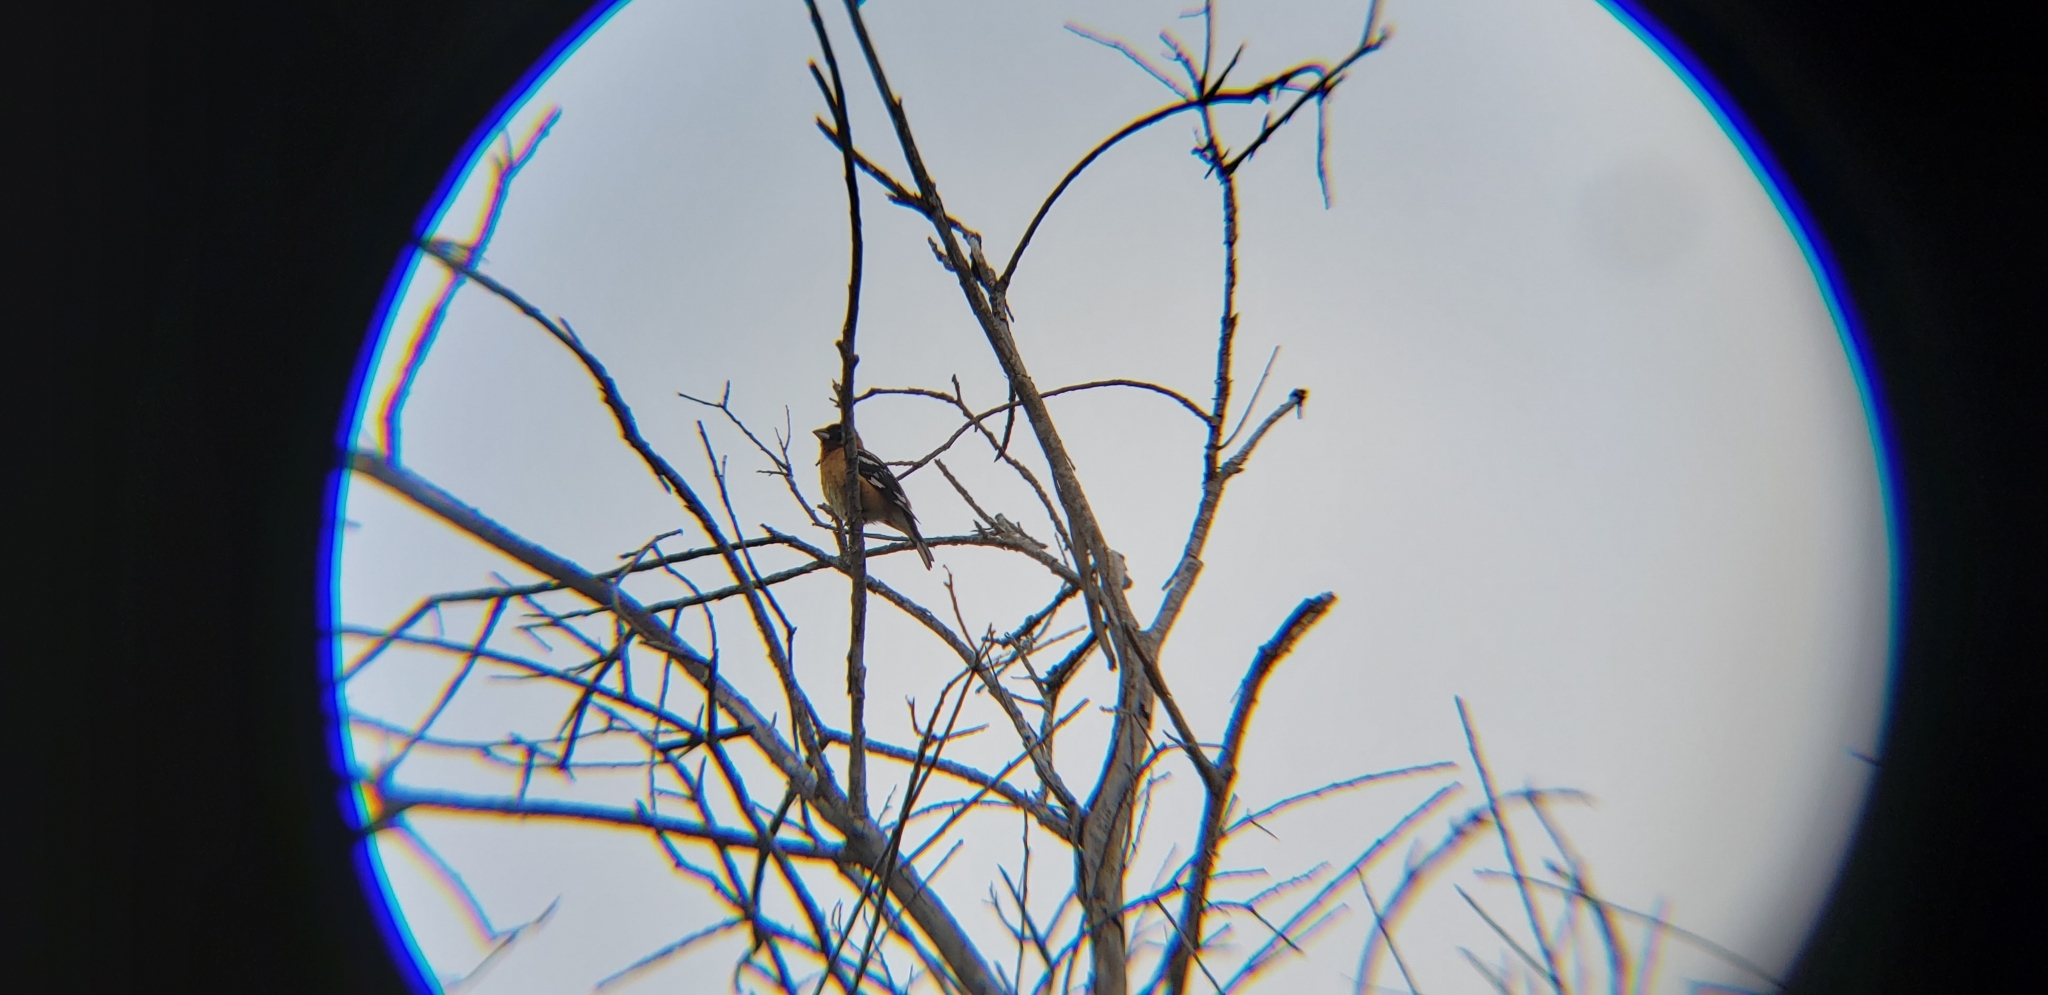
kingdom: Animalia
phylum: Chordata
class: Aves
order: Passeriformes
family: Cardinalidae
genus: Pheucticus
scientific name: Pheucticus melanocephalus
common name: Black-headed grosbeak
